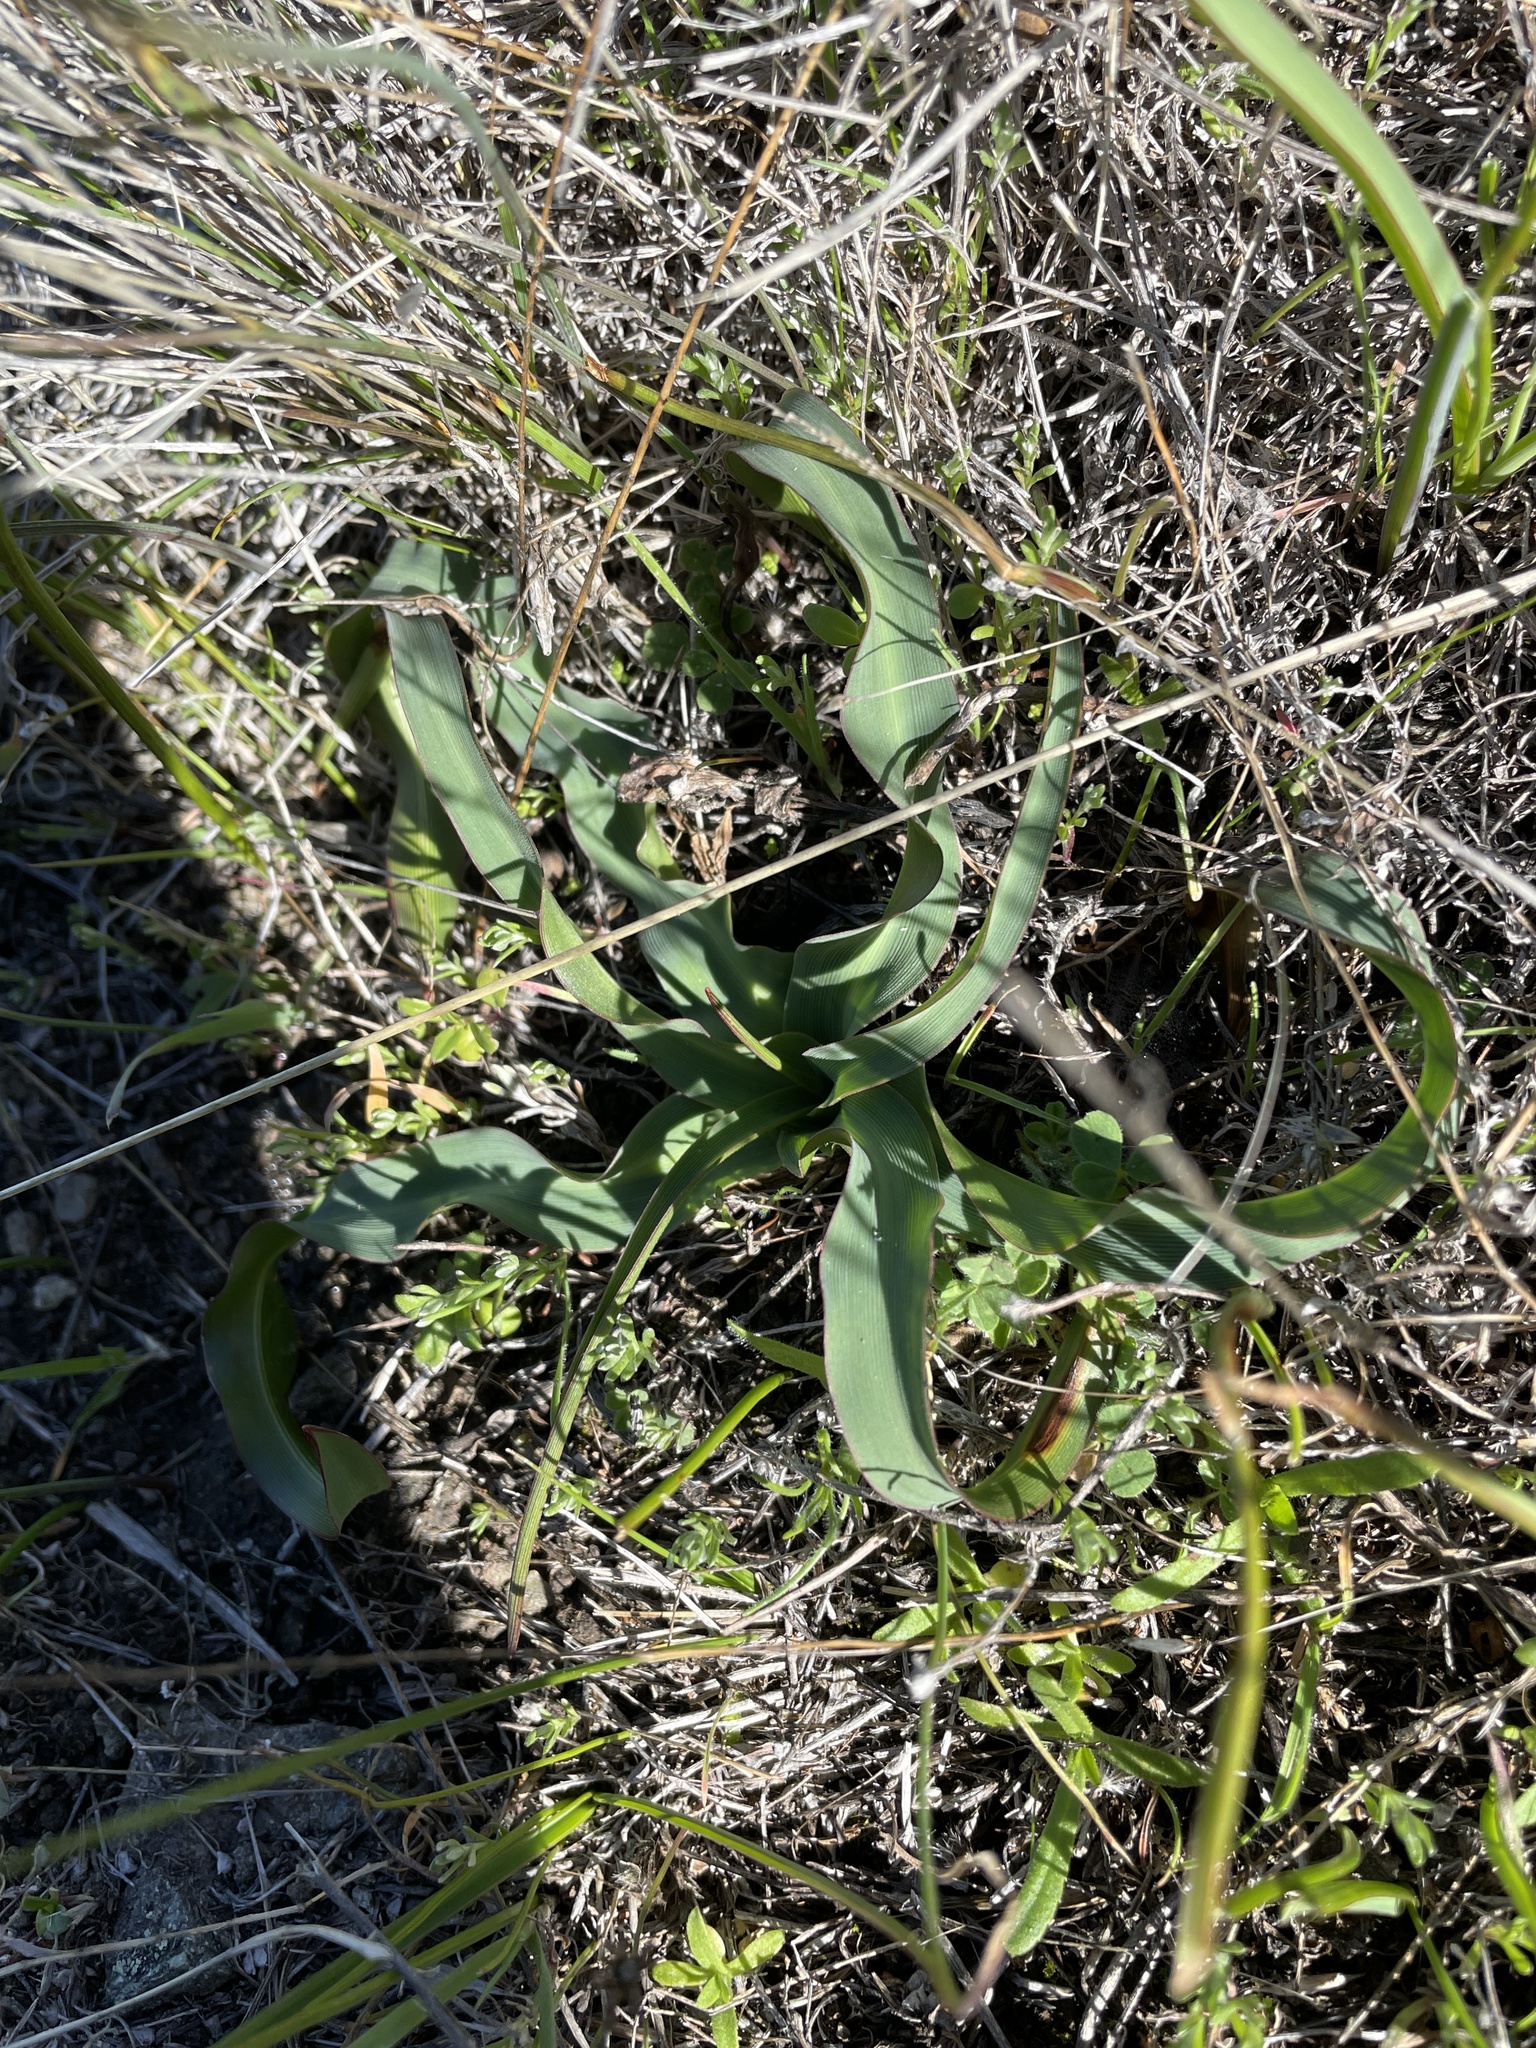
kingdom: Plantae
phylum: Tracheophyta
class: Liliopsida
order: Asparagales
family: Asparagaceae
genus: Chlorogalum
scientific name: Chlorogalum pomeridianum
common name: Amole
